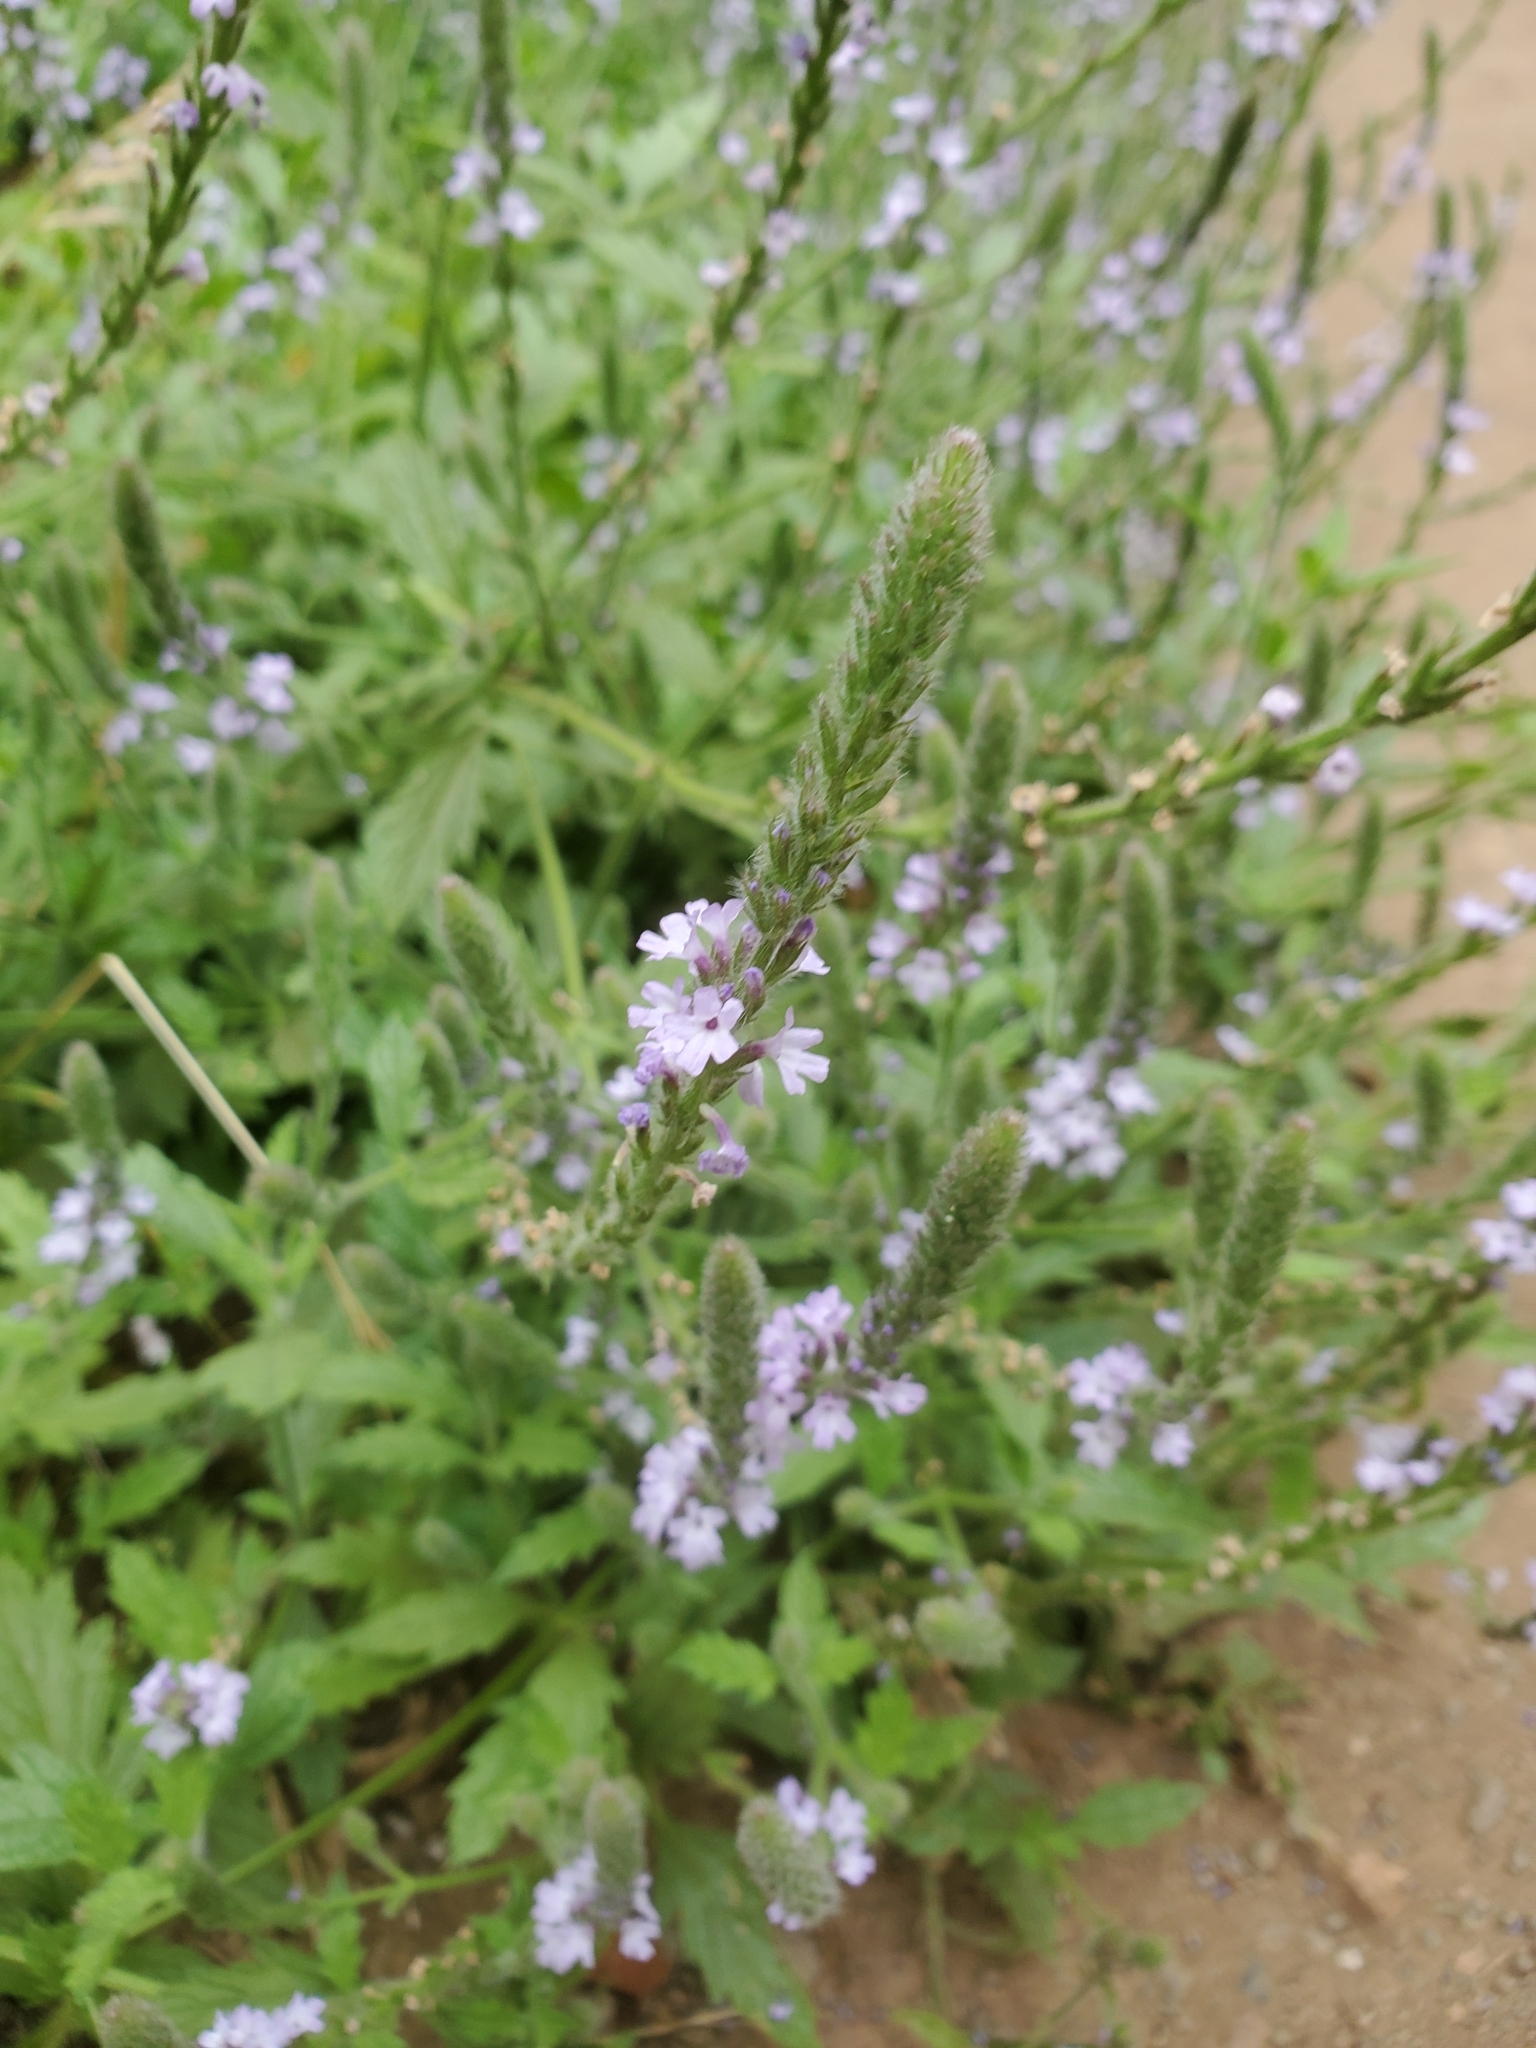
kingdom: Plantae
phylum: Tracheophyta
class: Magnoliopsida
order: Lamiales
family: Verbenaceae
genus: Verbena
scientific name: Verbena lasiostachys
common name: Vervain
